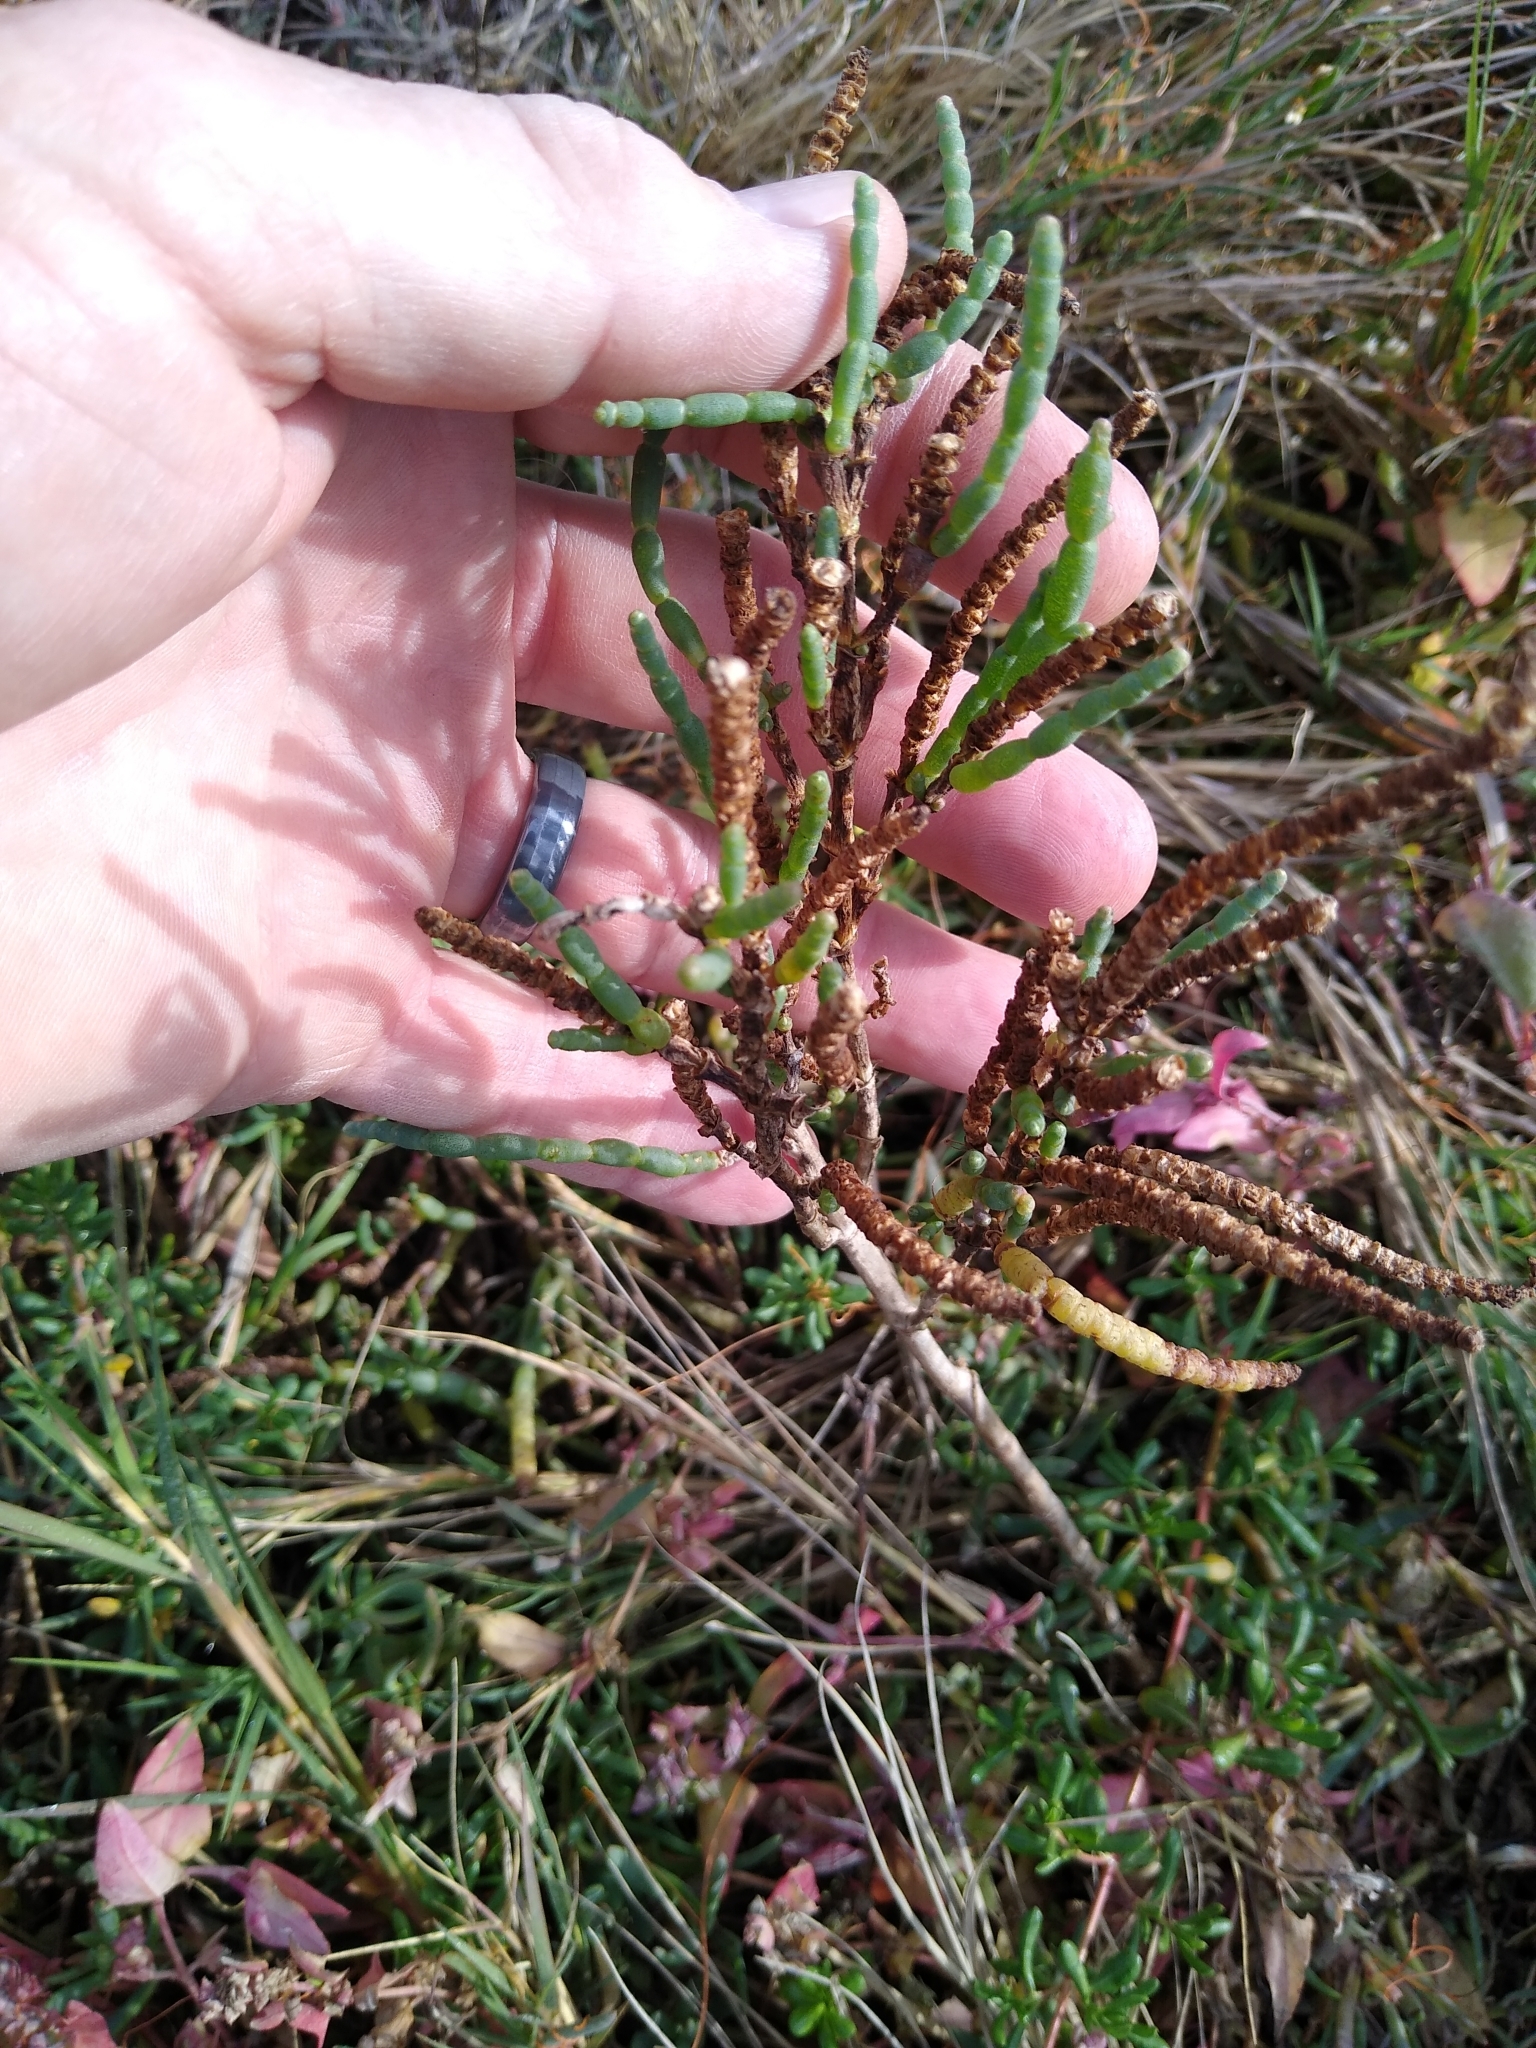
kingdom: Plantae
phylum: Tracheophyta
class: Magnoliopsida
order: Caryophyllales
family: Amaranthaceae
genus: Salicornia
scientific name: Salicornia pacifica
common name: Pacific glasswort
